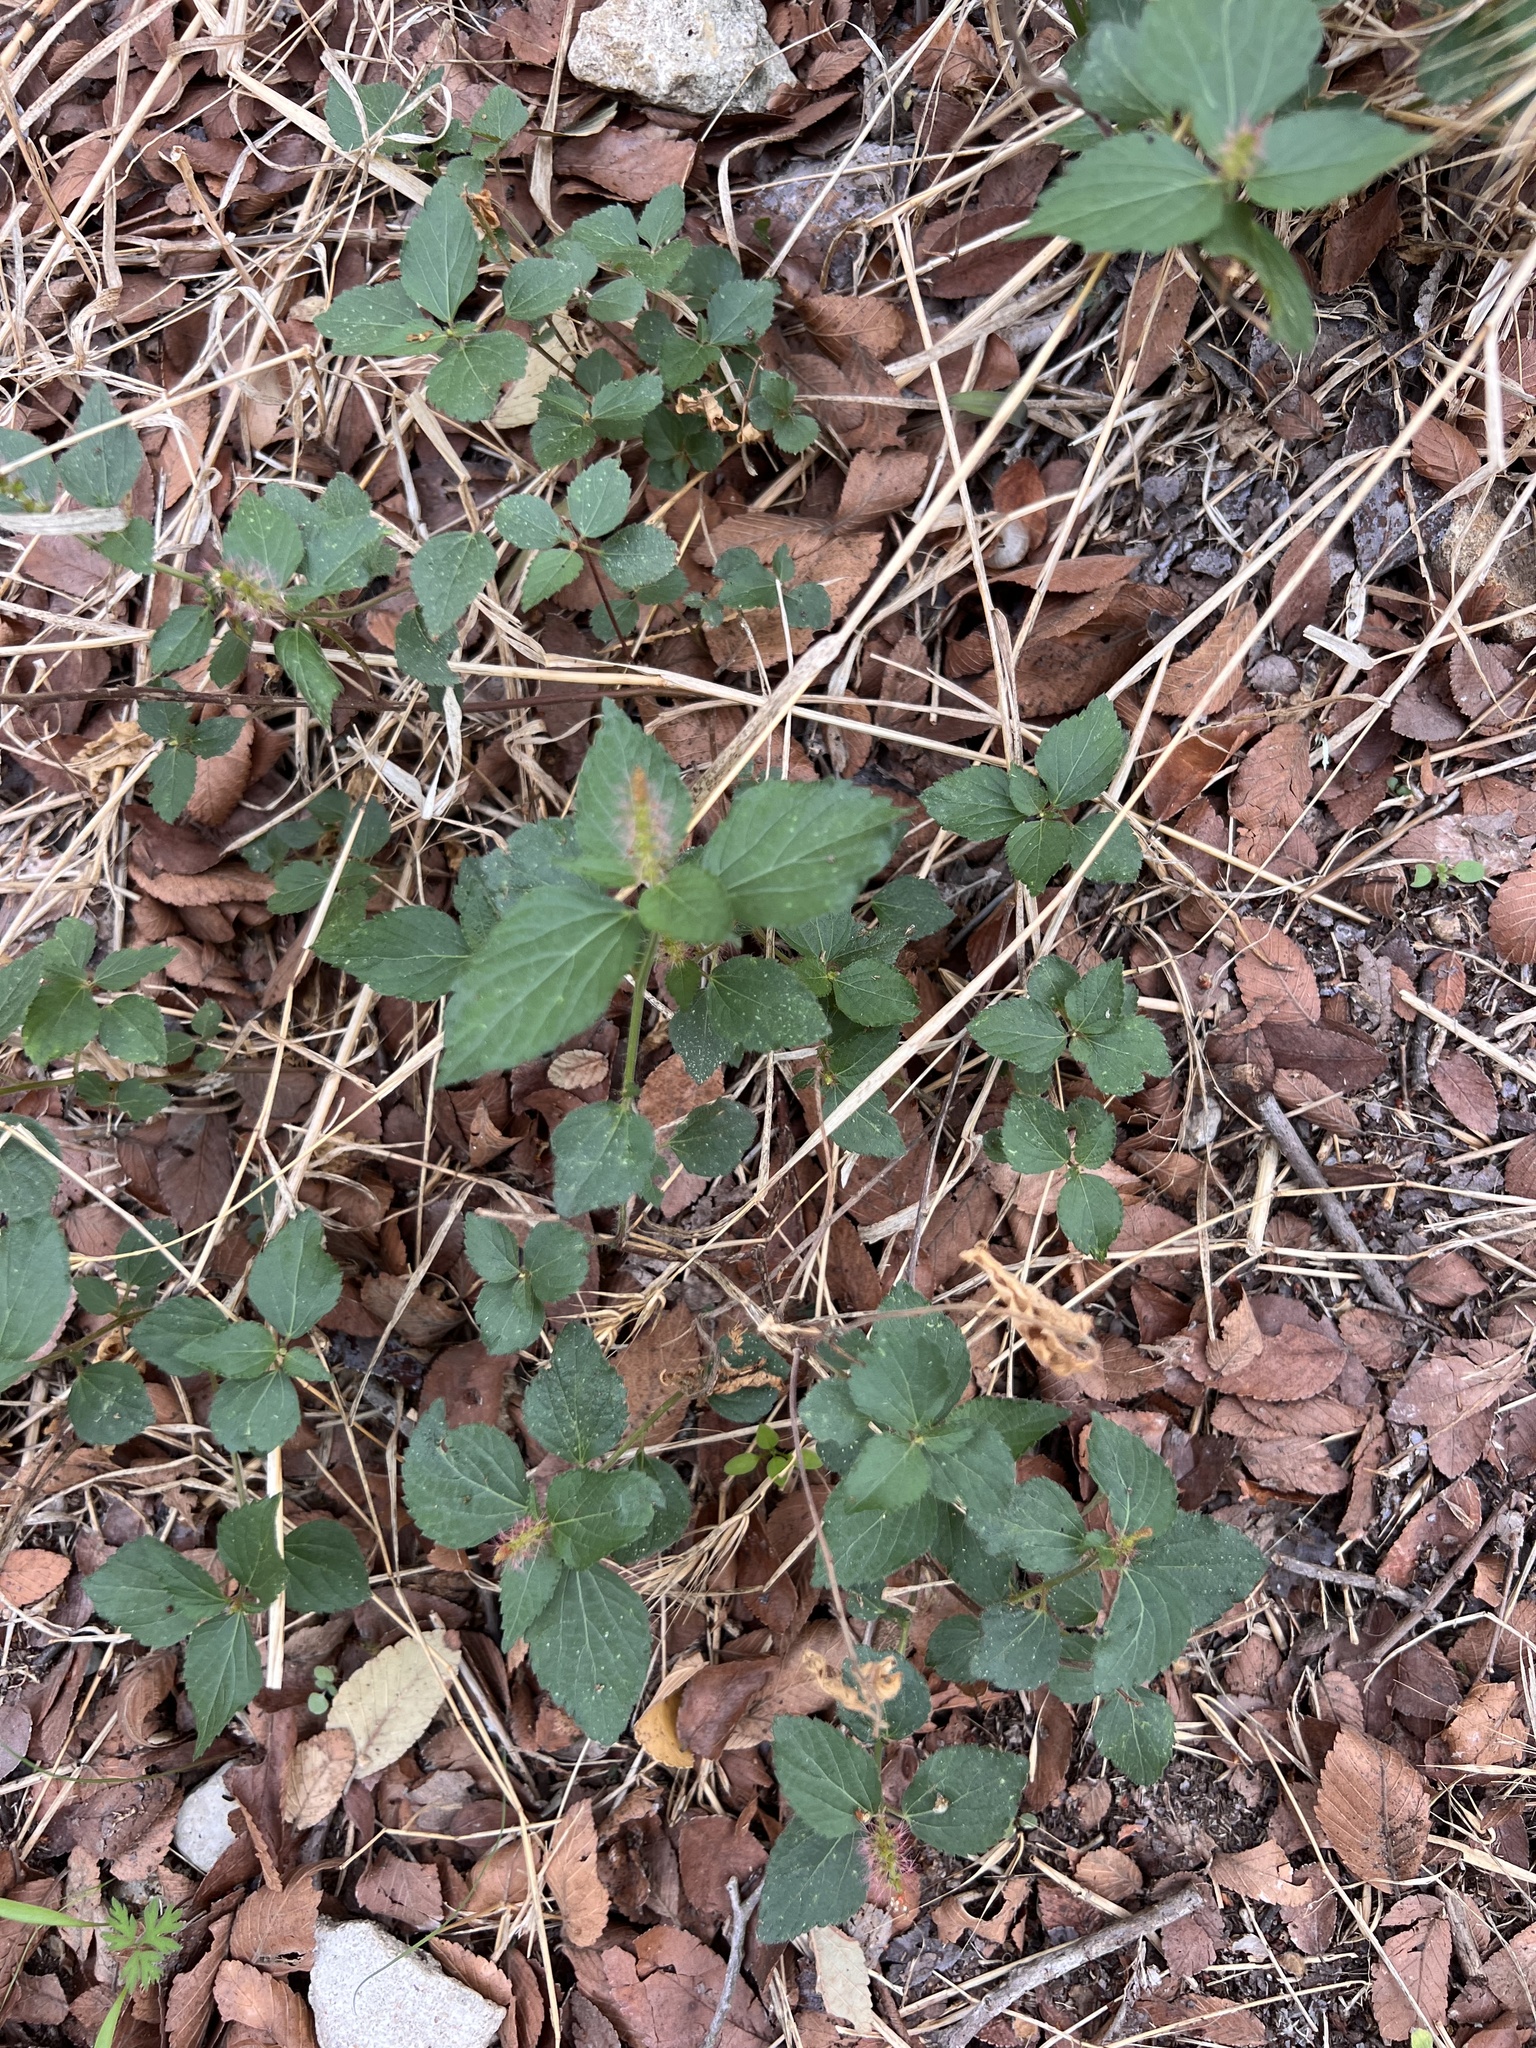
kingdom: Plantae
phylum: Tracheophyta
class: Magnoliopsida
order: Malpighiales
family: Euphorbiaceae
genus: Acalypha
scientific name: Acalypha phleoides
